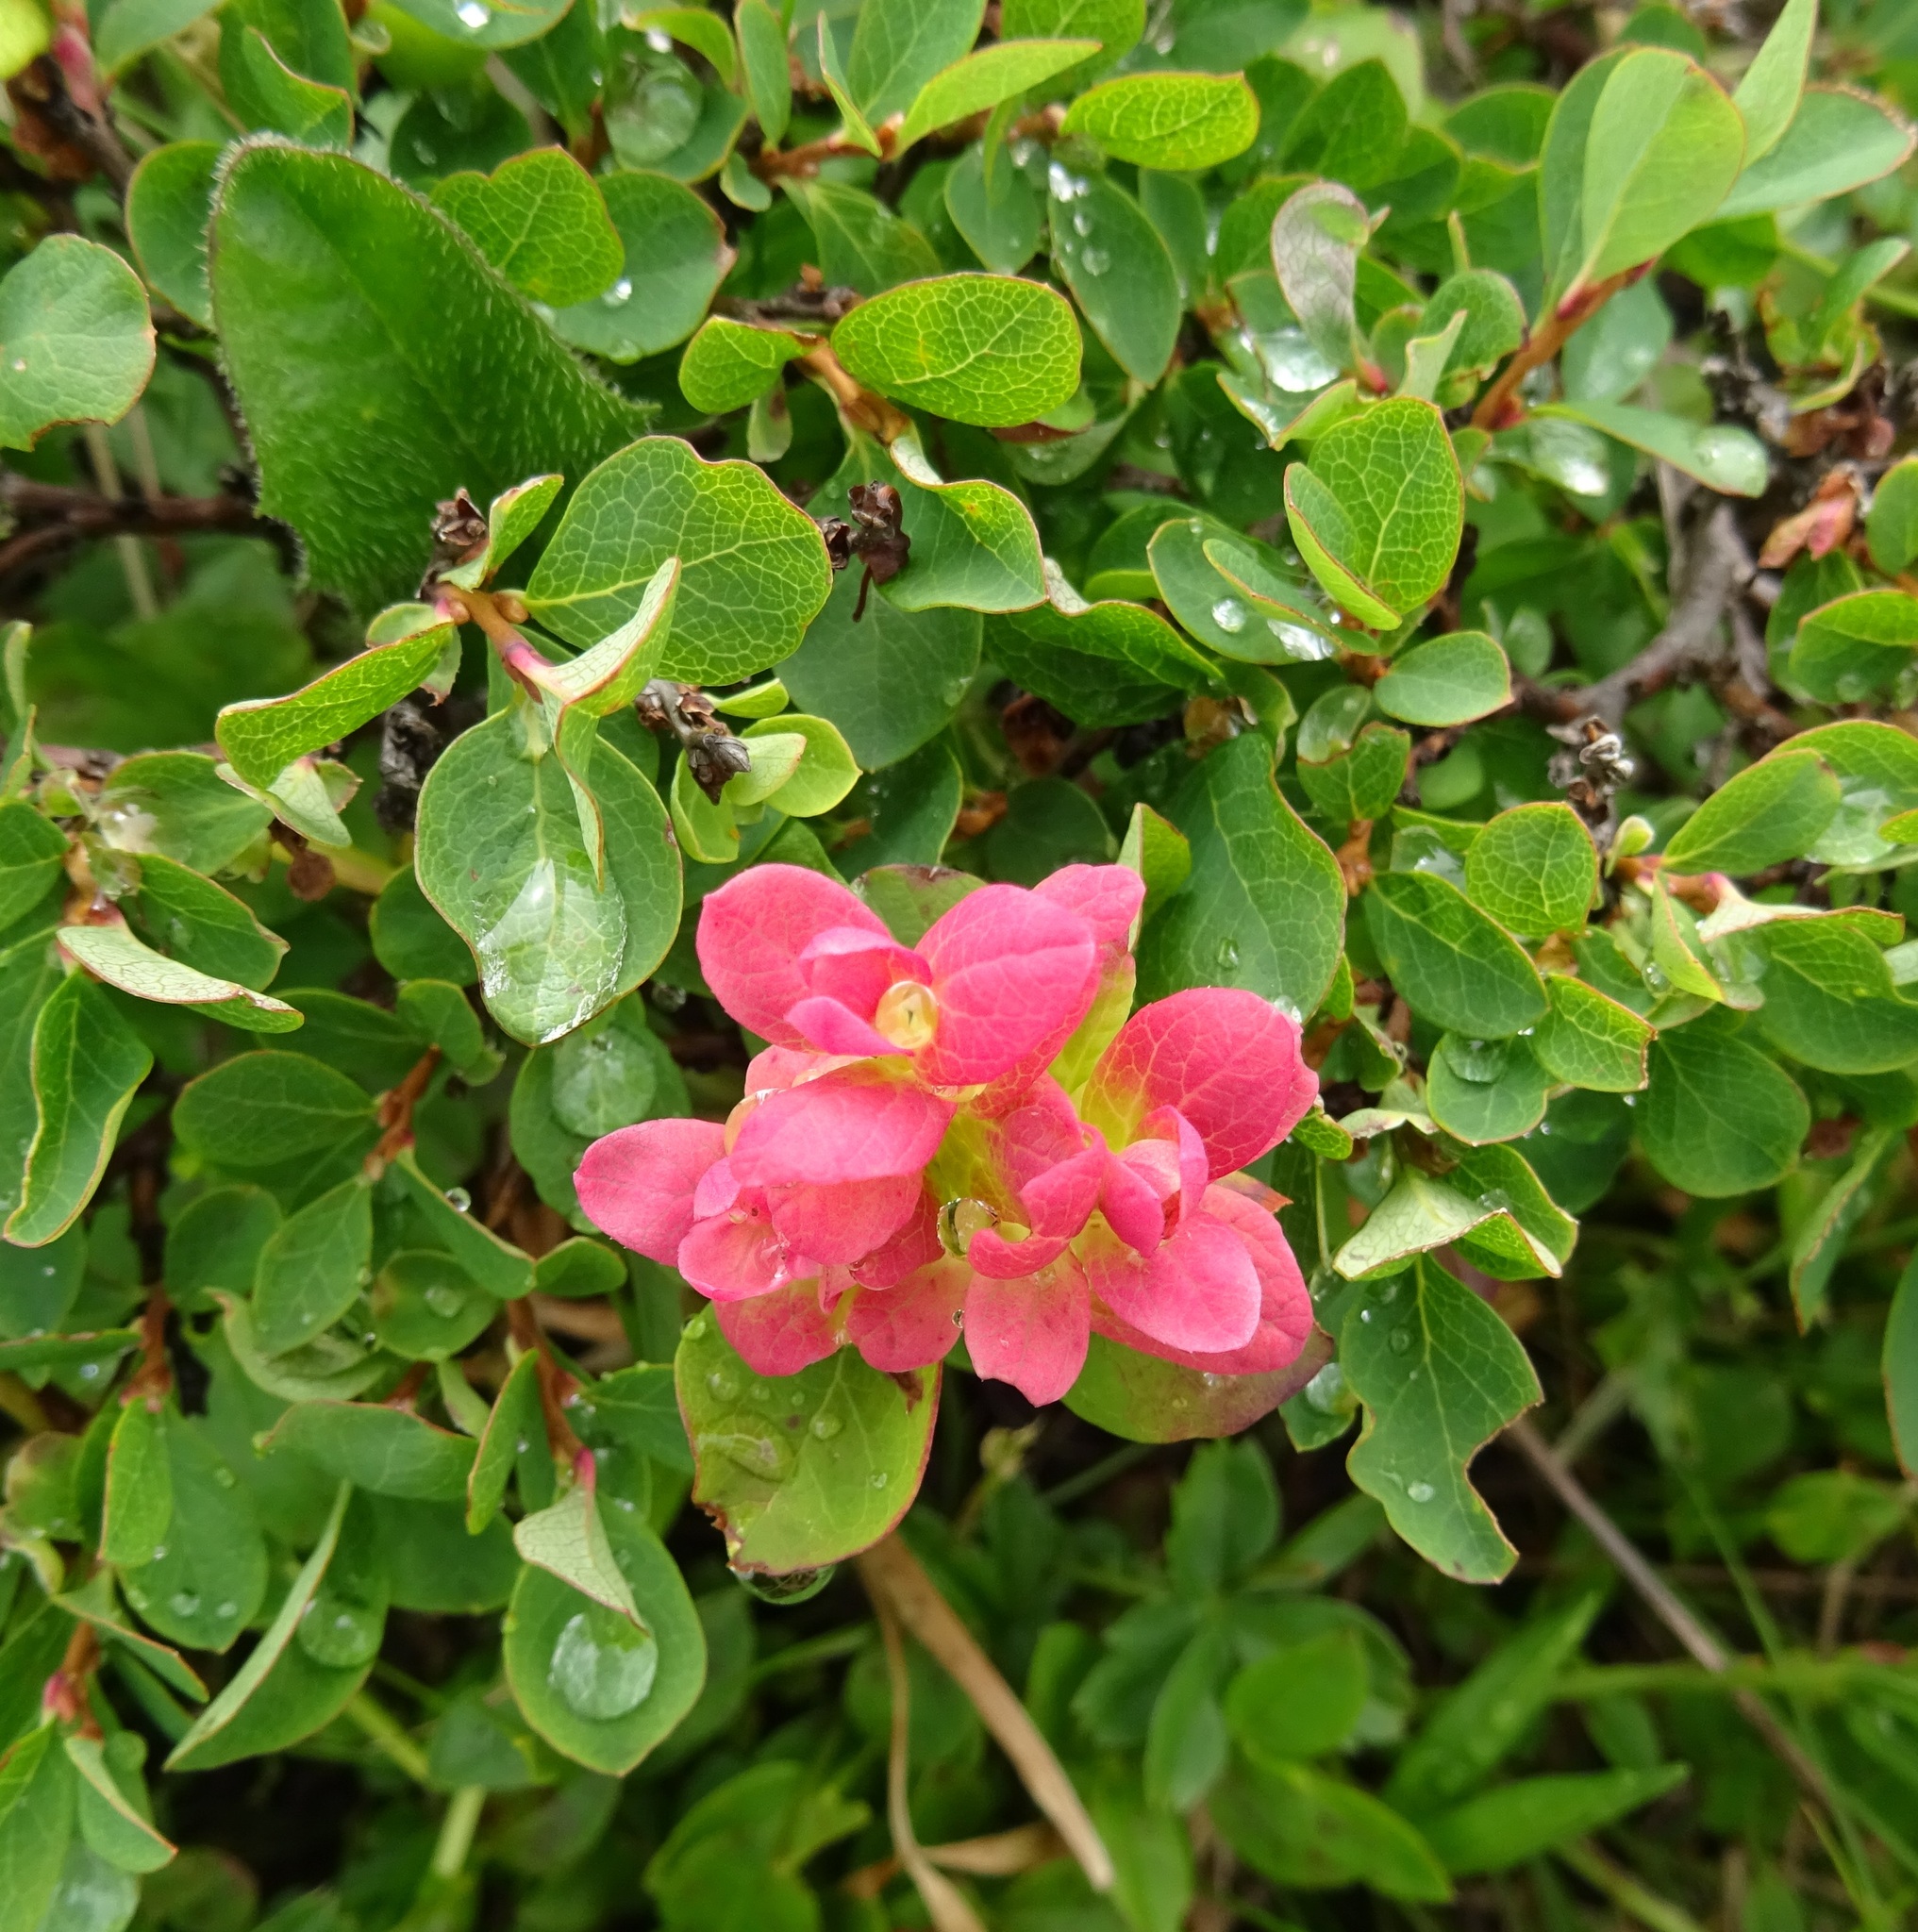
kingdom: Plantae
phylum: Tracheophyta
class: Magnoliopsida
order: Ericales
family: Ericaceae
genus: Vaccinium
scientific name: Vaccinium uliginosum
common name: Bog bilberry
